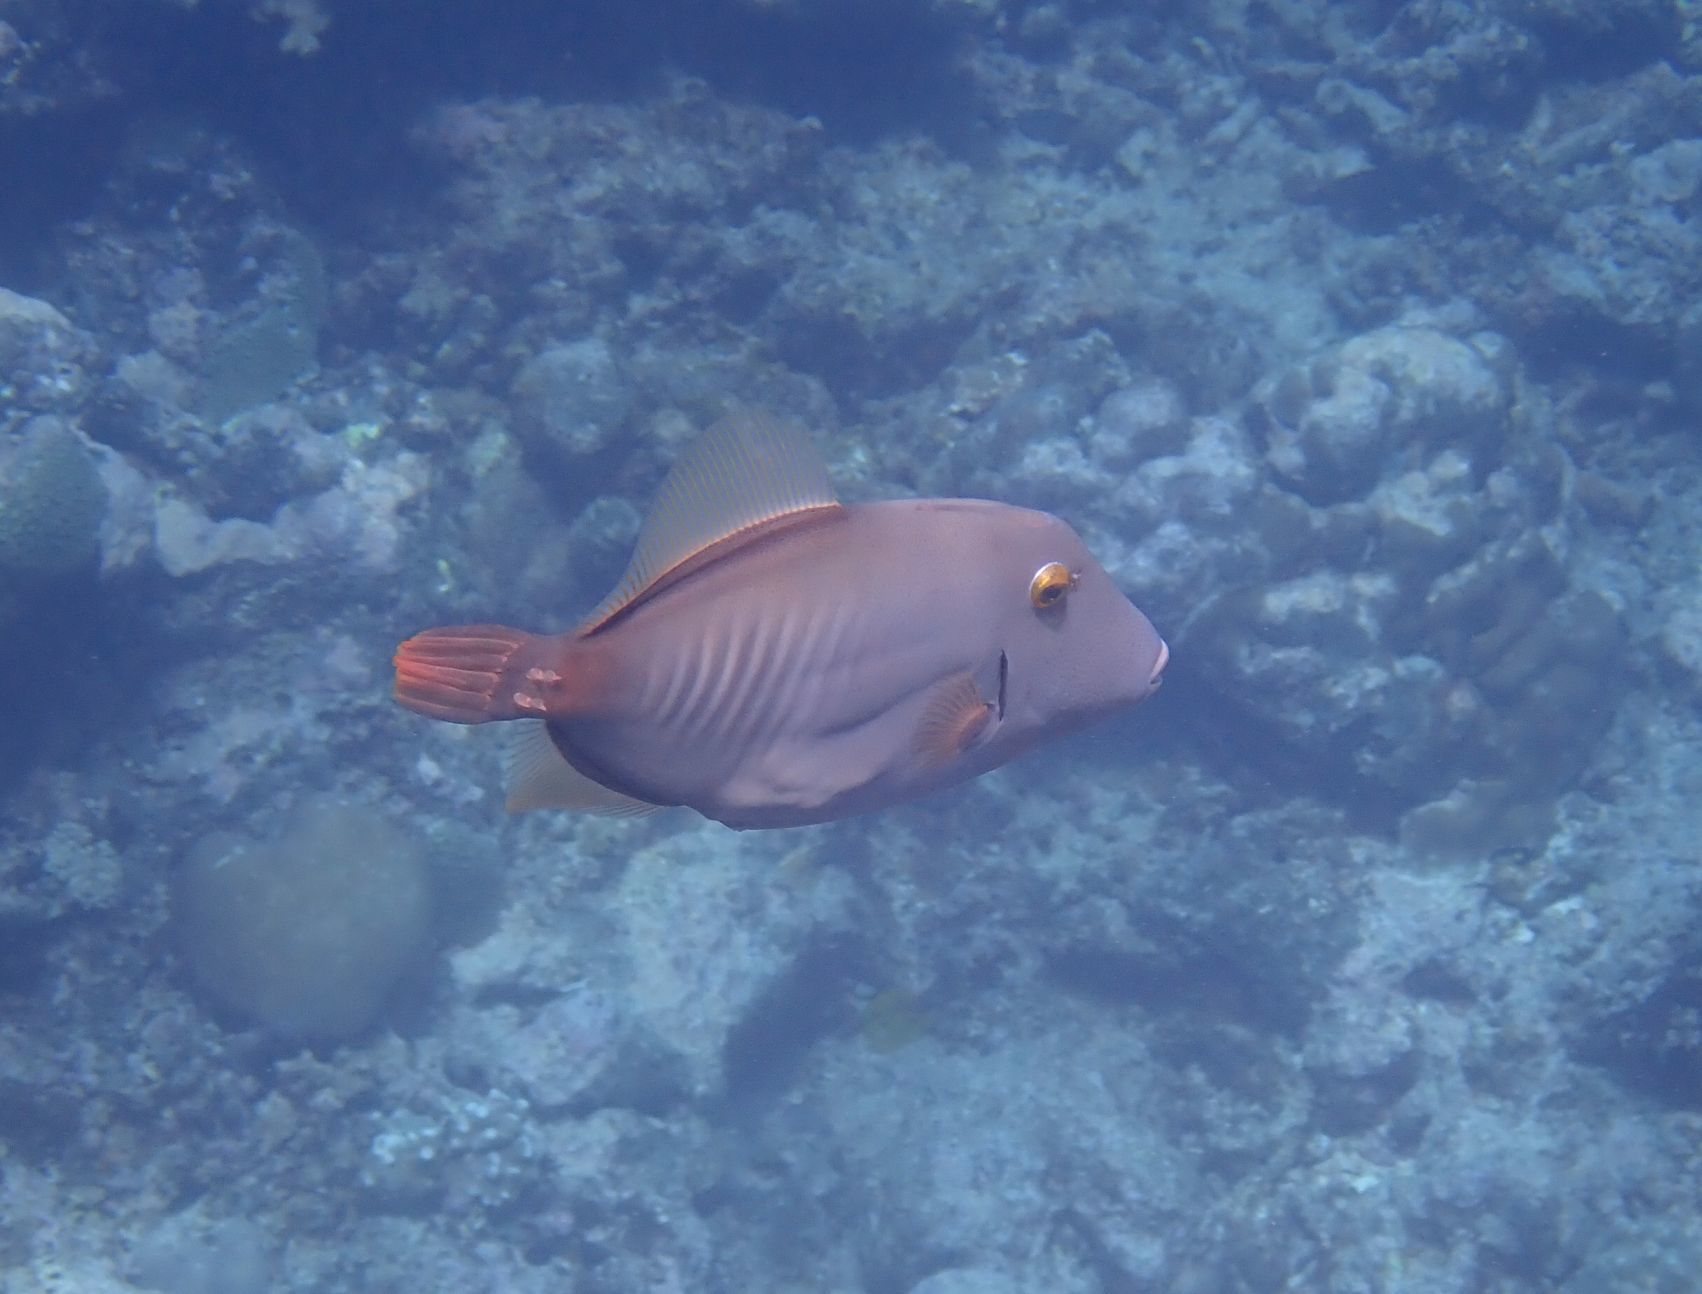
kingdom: Animalia
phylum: Chordata
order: Tetraodontiformes
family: Monacanthidae
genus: Cantherhines
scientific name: Cantherhines dumerilii
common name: Barred filefish
